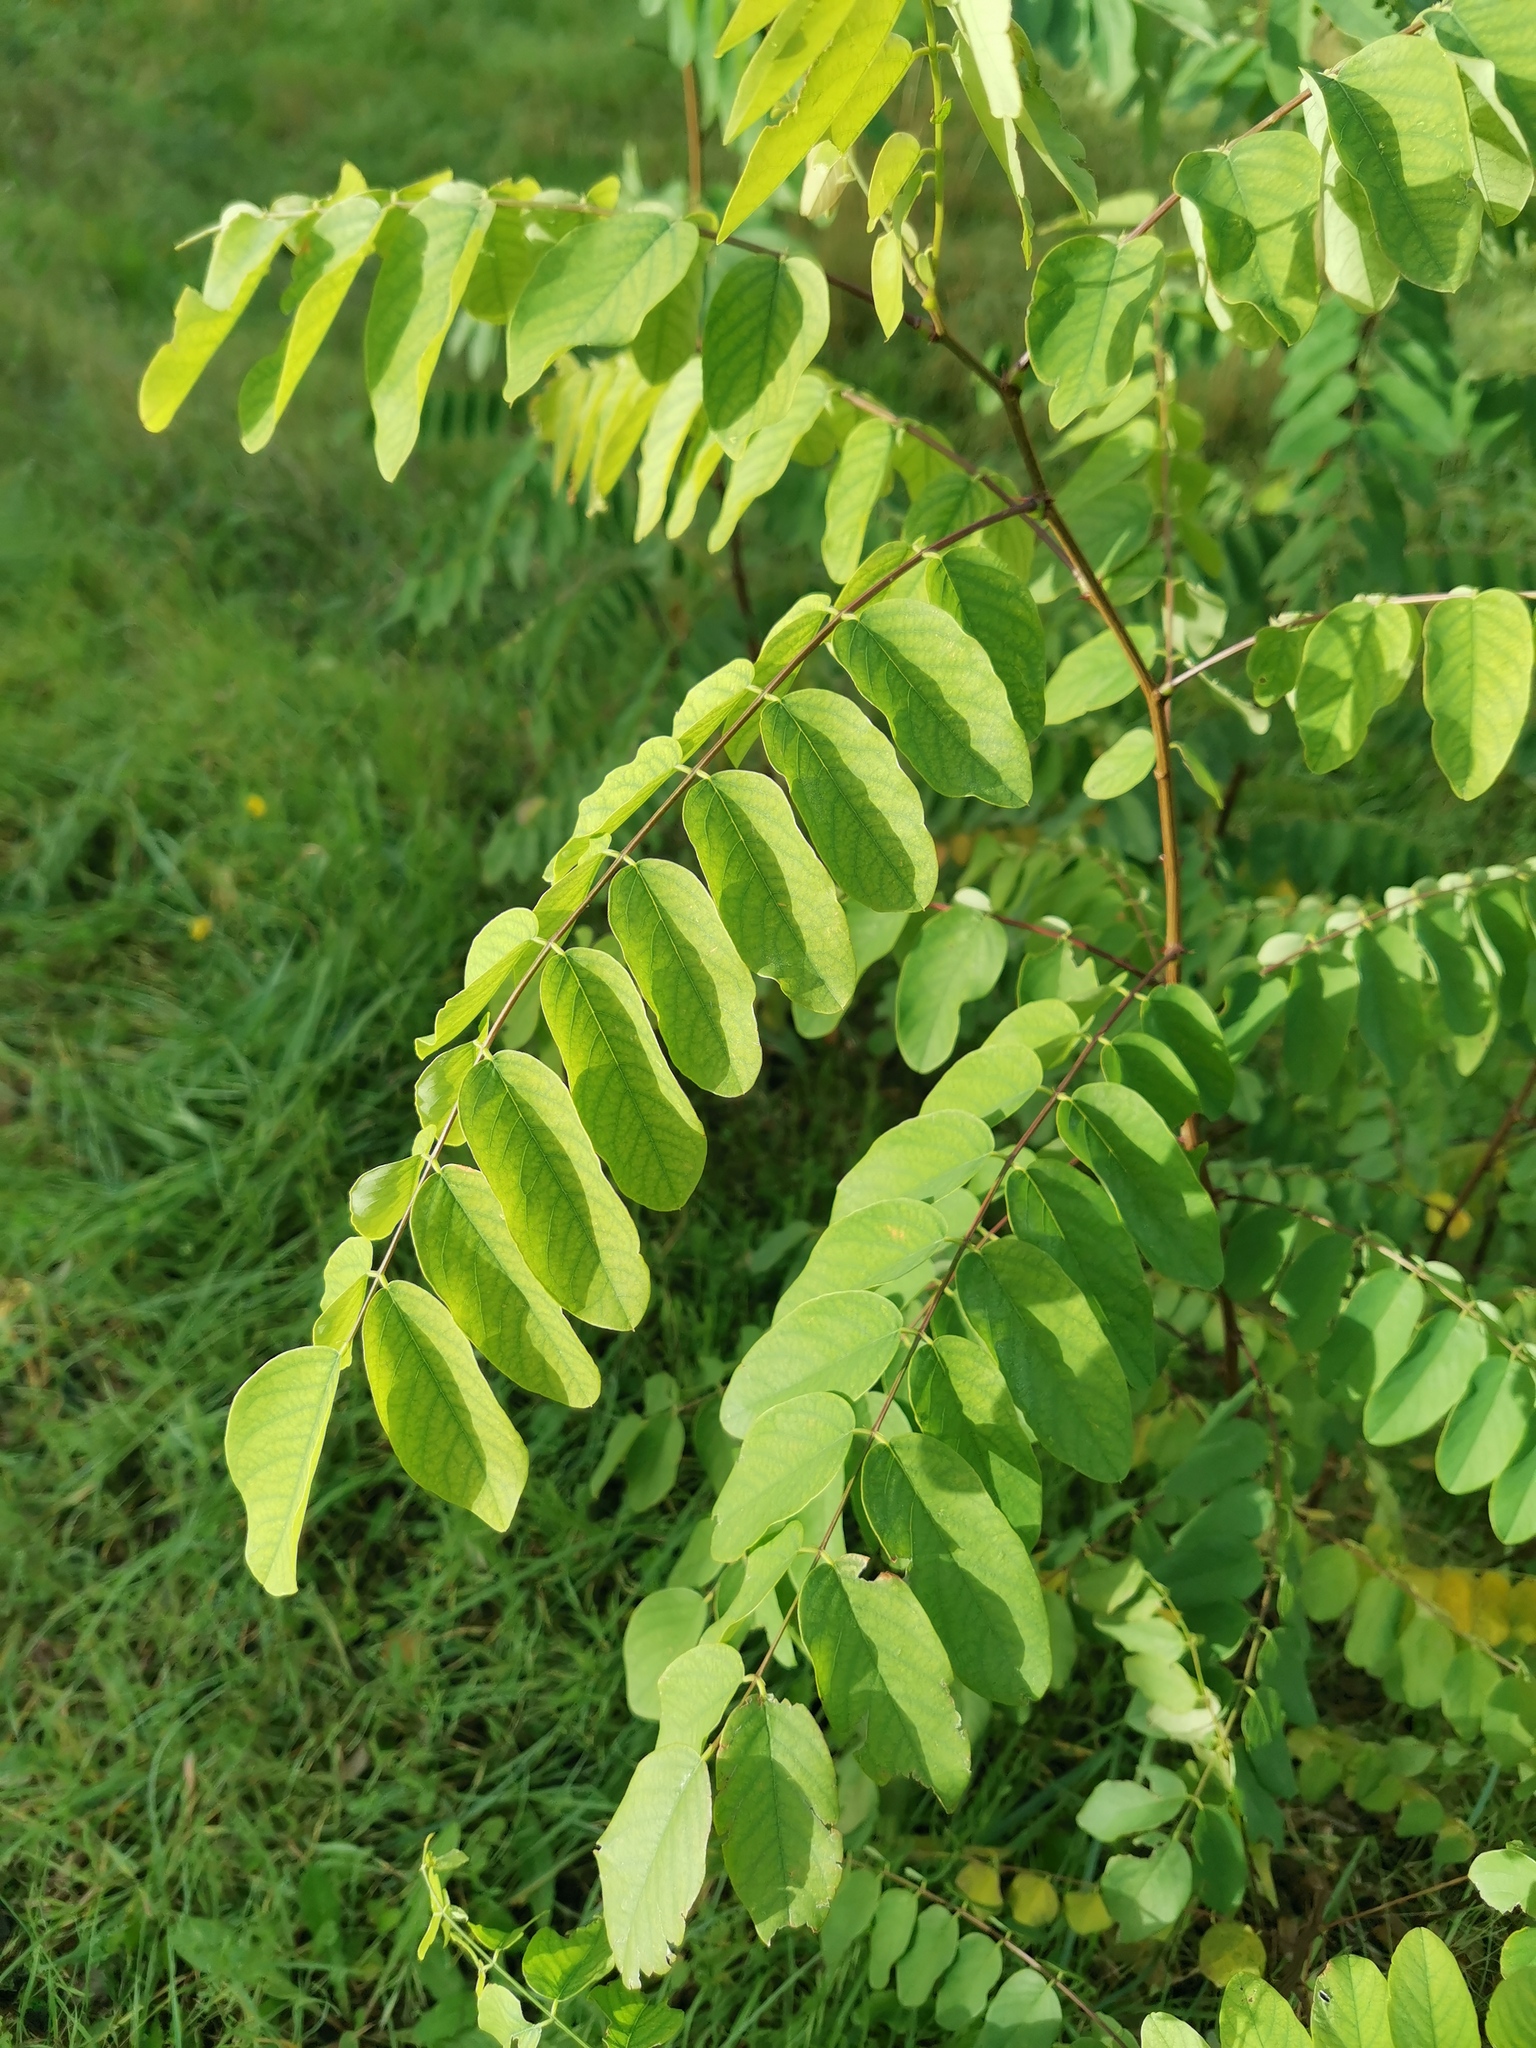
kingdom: Plantae
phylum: Tracheophyta
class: Magnoliopsida
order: Fabales
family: Fabaceae
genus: Robinia
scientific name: Robinia pseudoacacia
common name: Black locust
